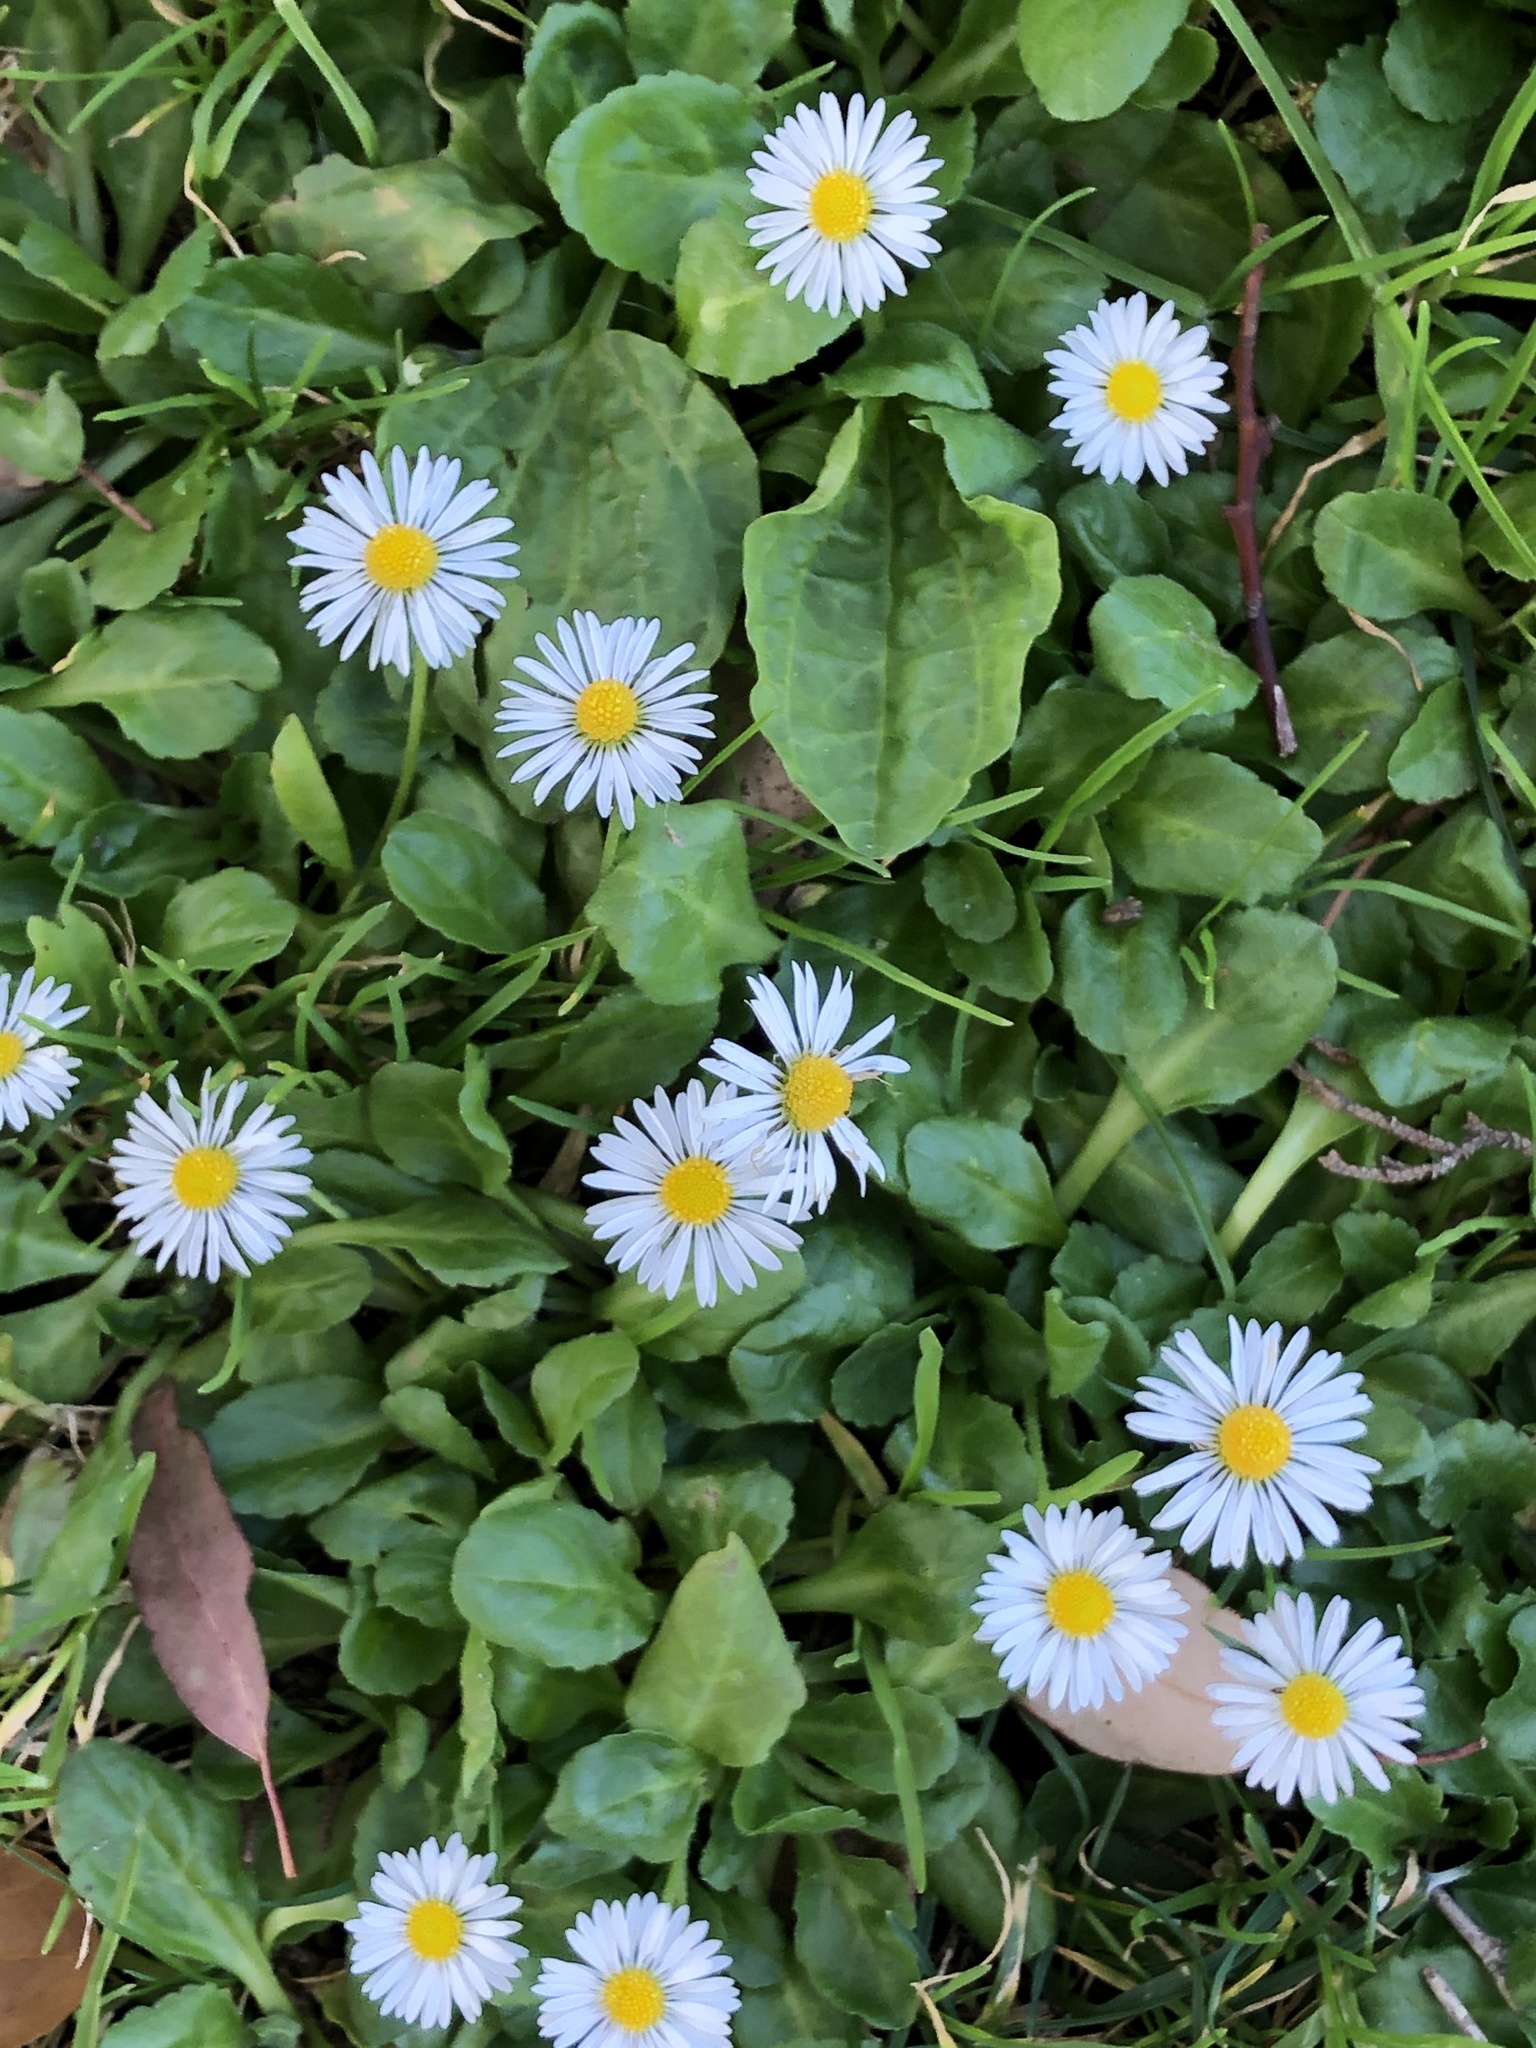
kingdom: Plantae
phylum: Tracheophyta
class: Magnoliopsida
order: Asterales
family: Asteraceae
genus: Bellis
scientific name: Bellis perennis
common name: Lawndaisy
